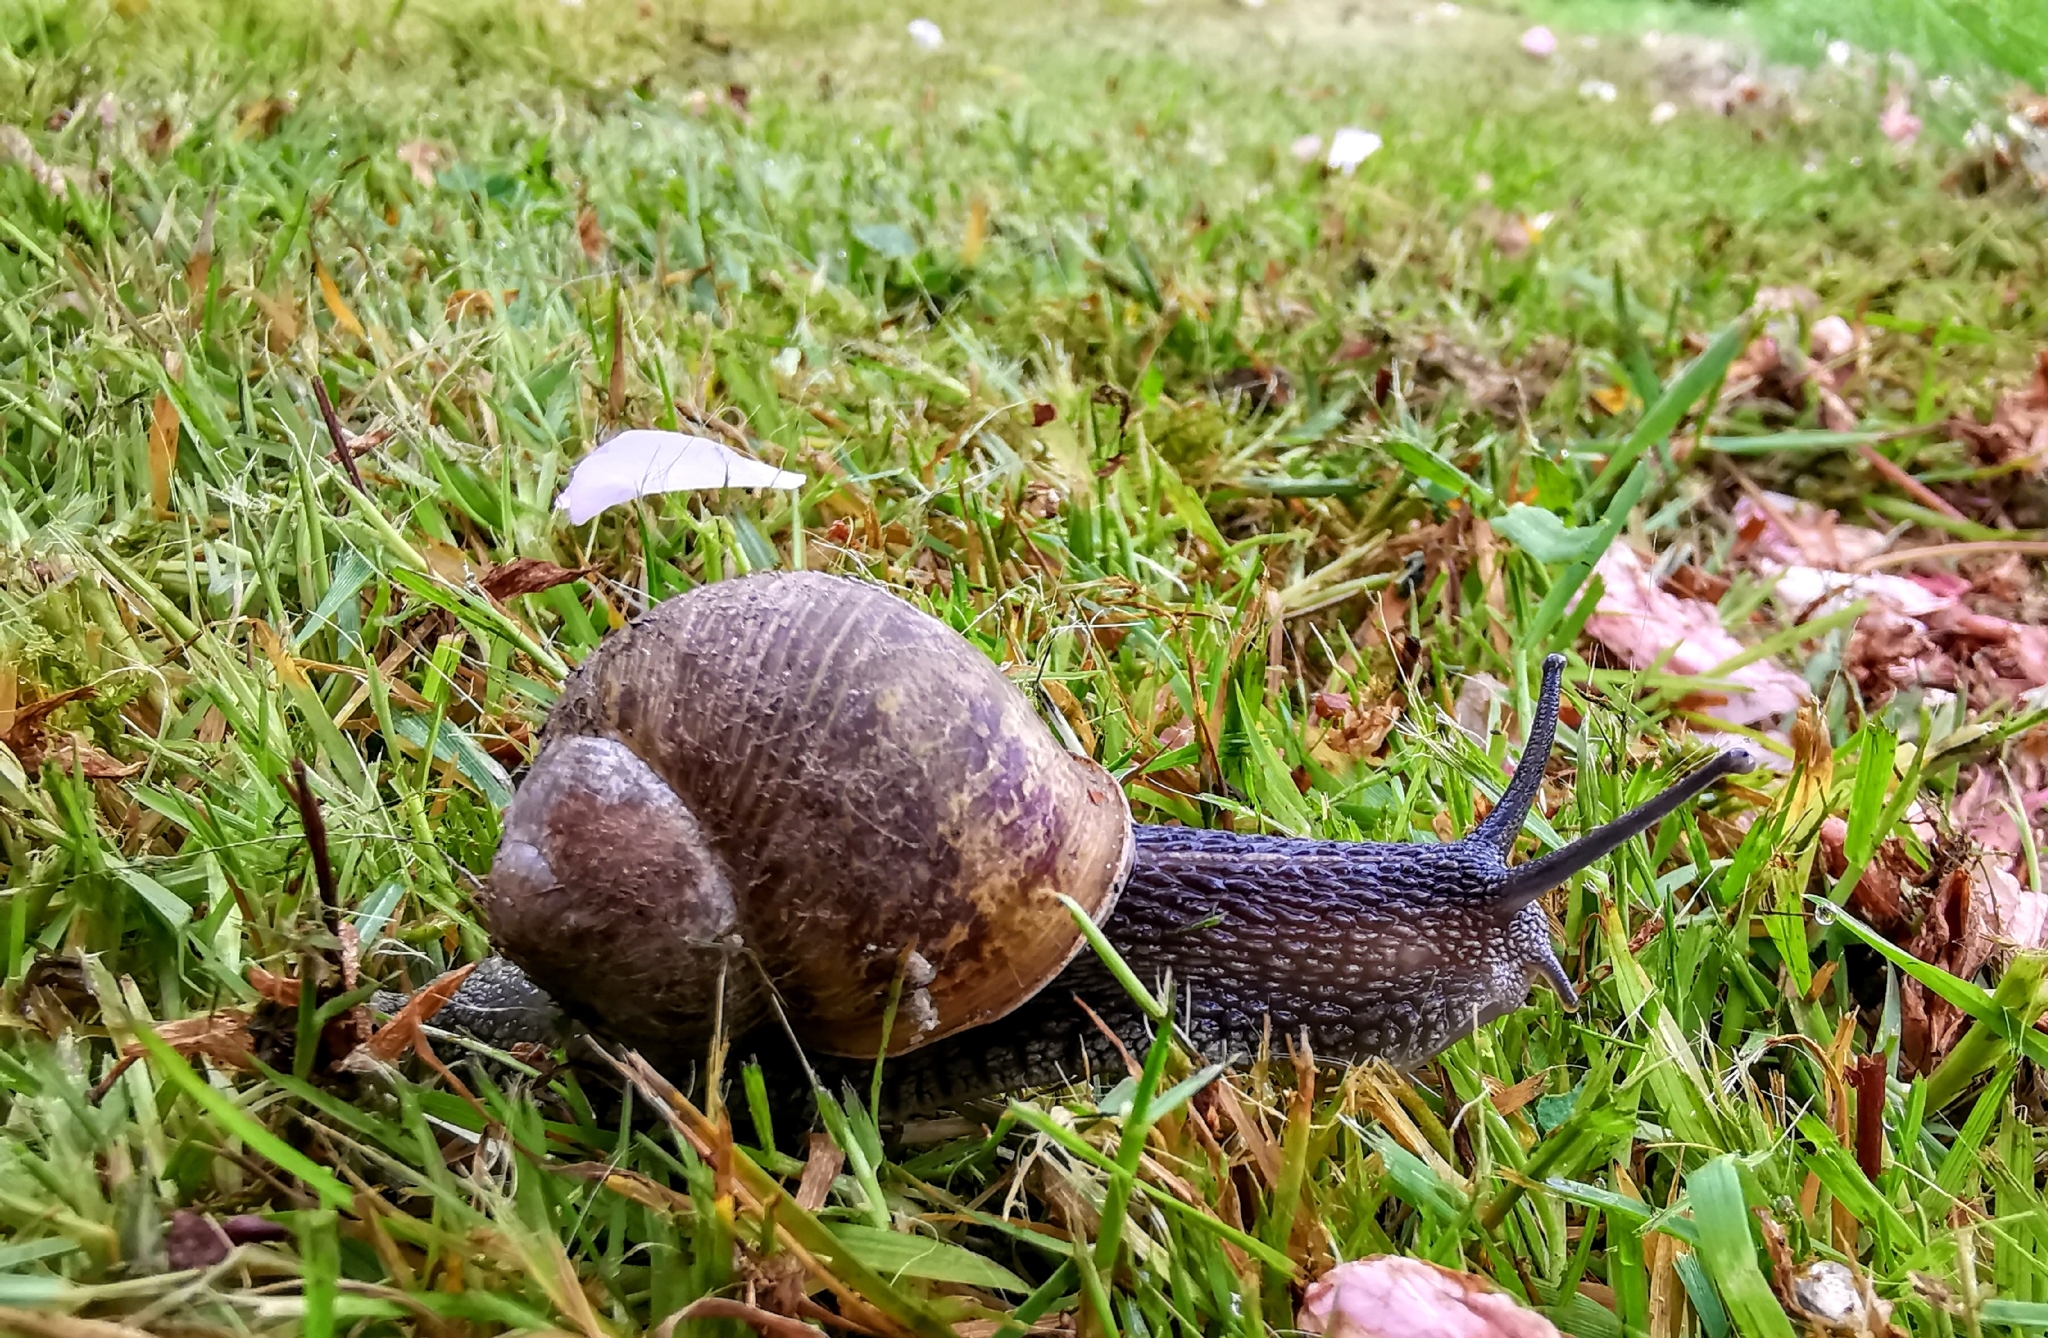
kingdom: Animalia
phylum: Mollusca
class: Gastropoda
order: Stylommatophora
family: Helicidae
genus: Cornu
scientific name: Cornu aspersum
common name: Brown garden snail
